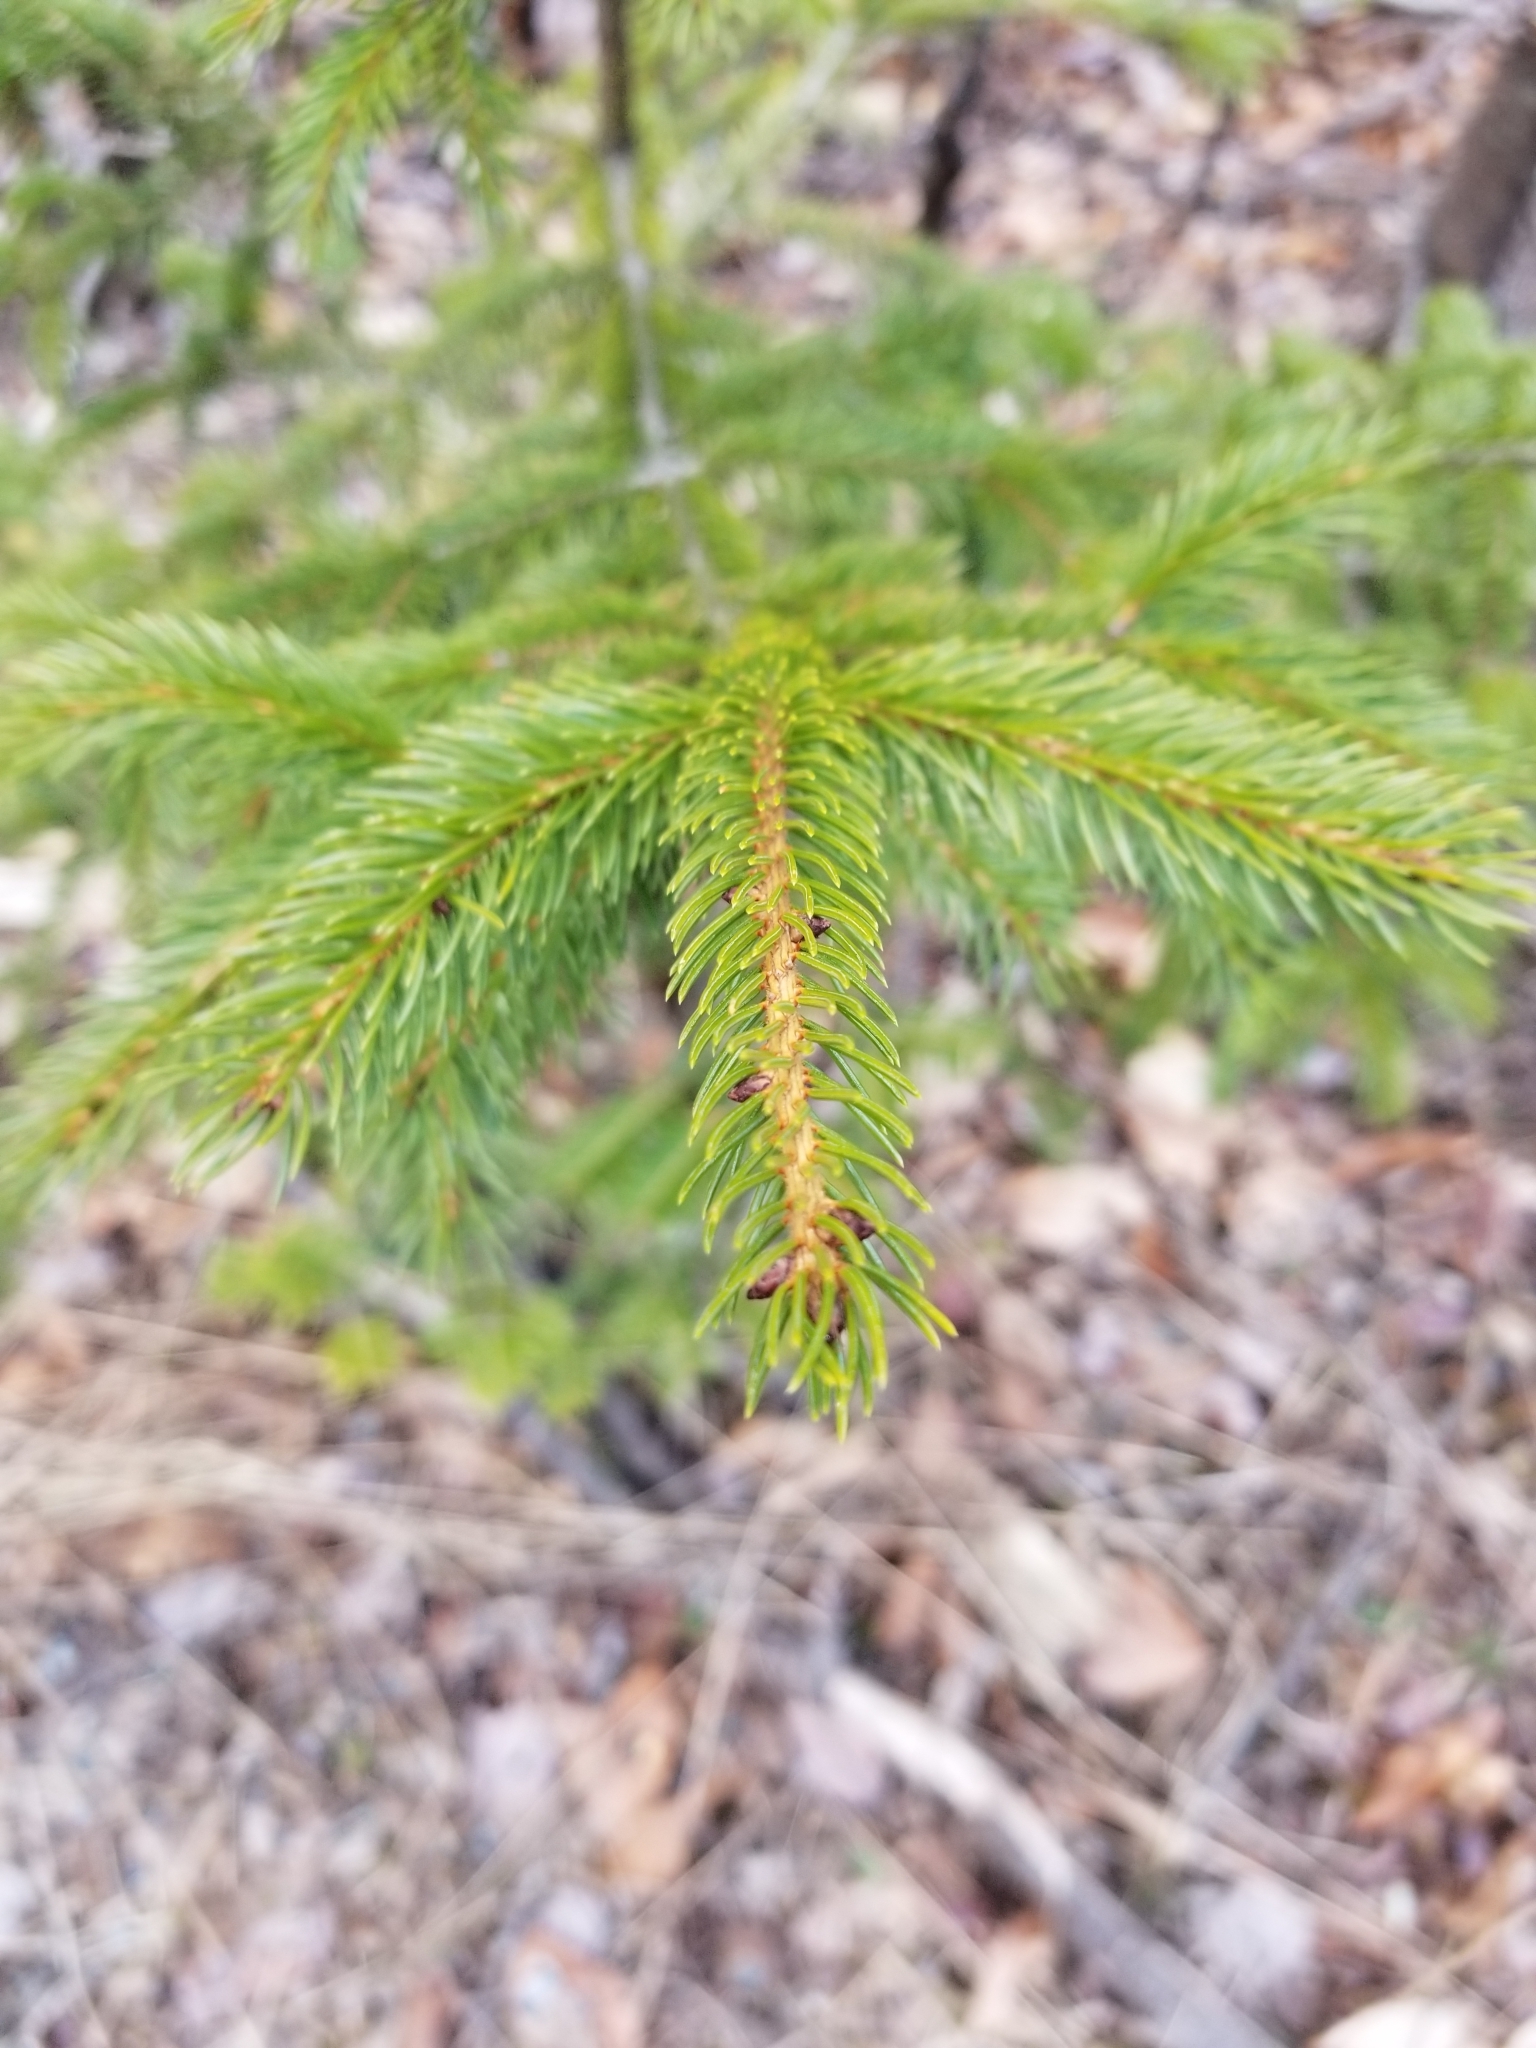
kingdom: Plantae
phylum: Tracheophyta
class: Pinopsida
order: Pinales
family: Pinaceae
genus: Picea
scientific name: Picea rubens
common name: Red spruce
